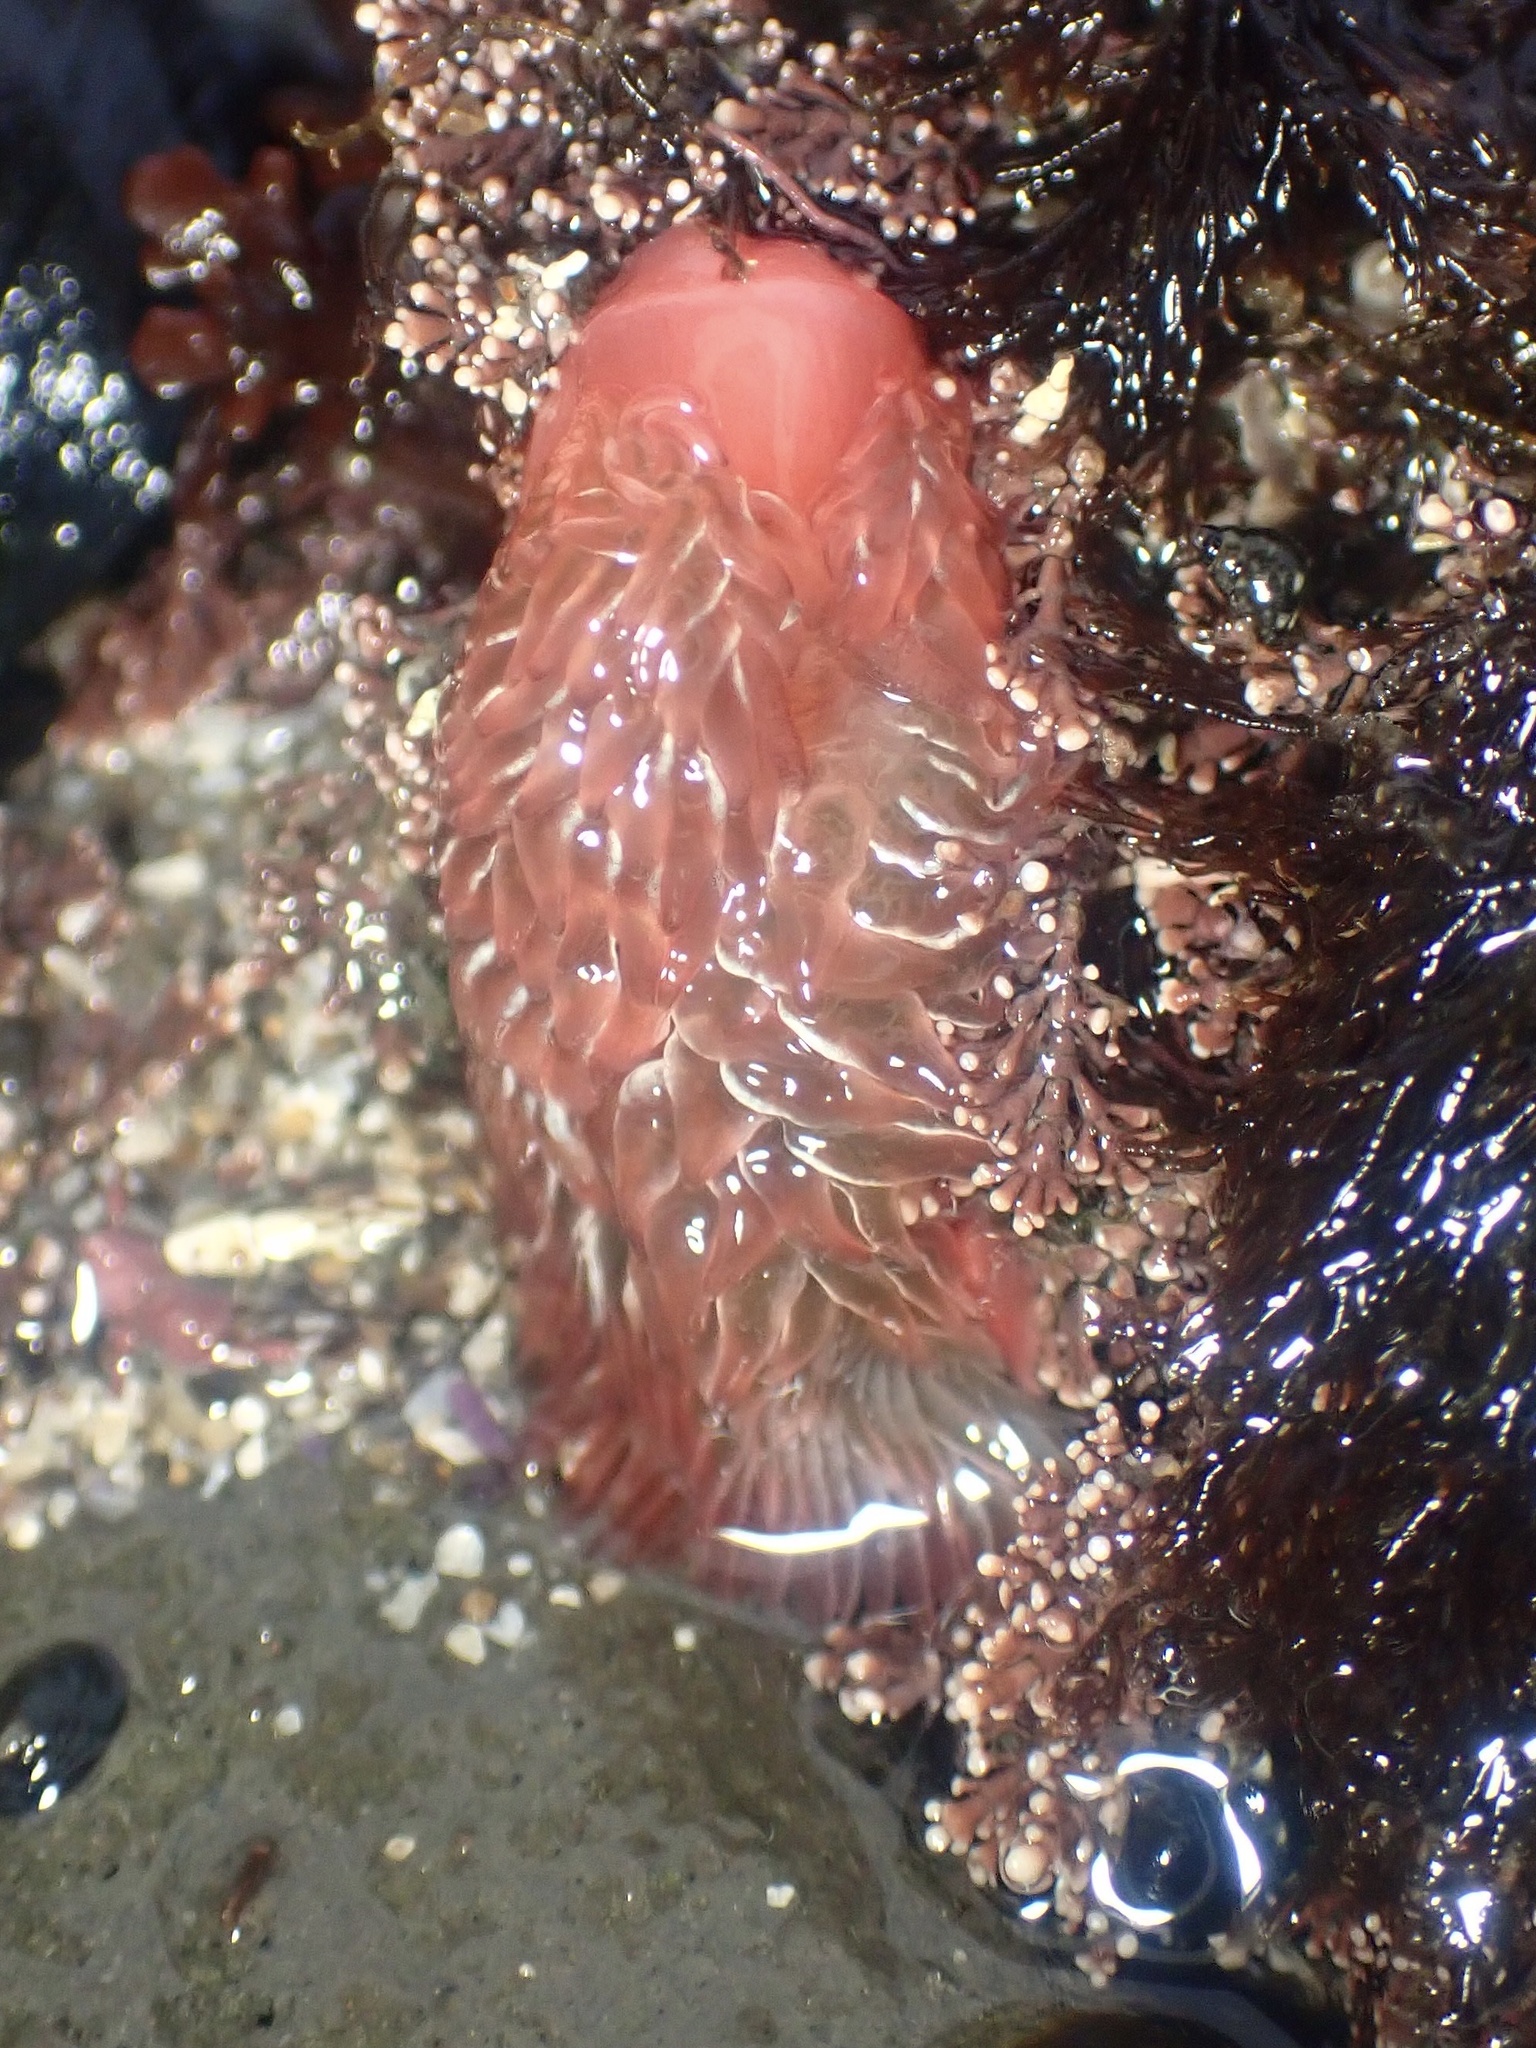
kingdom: Animalia
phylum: Mollusca
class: Gastropoda
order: Nudibranchia
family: Aeolidiidae
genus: Aeolidia
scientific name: Aeolidia loui
